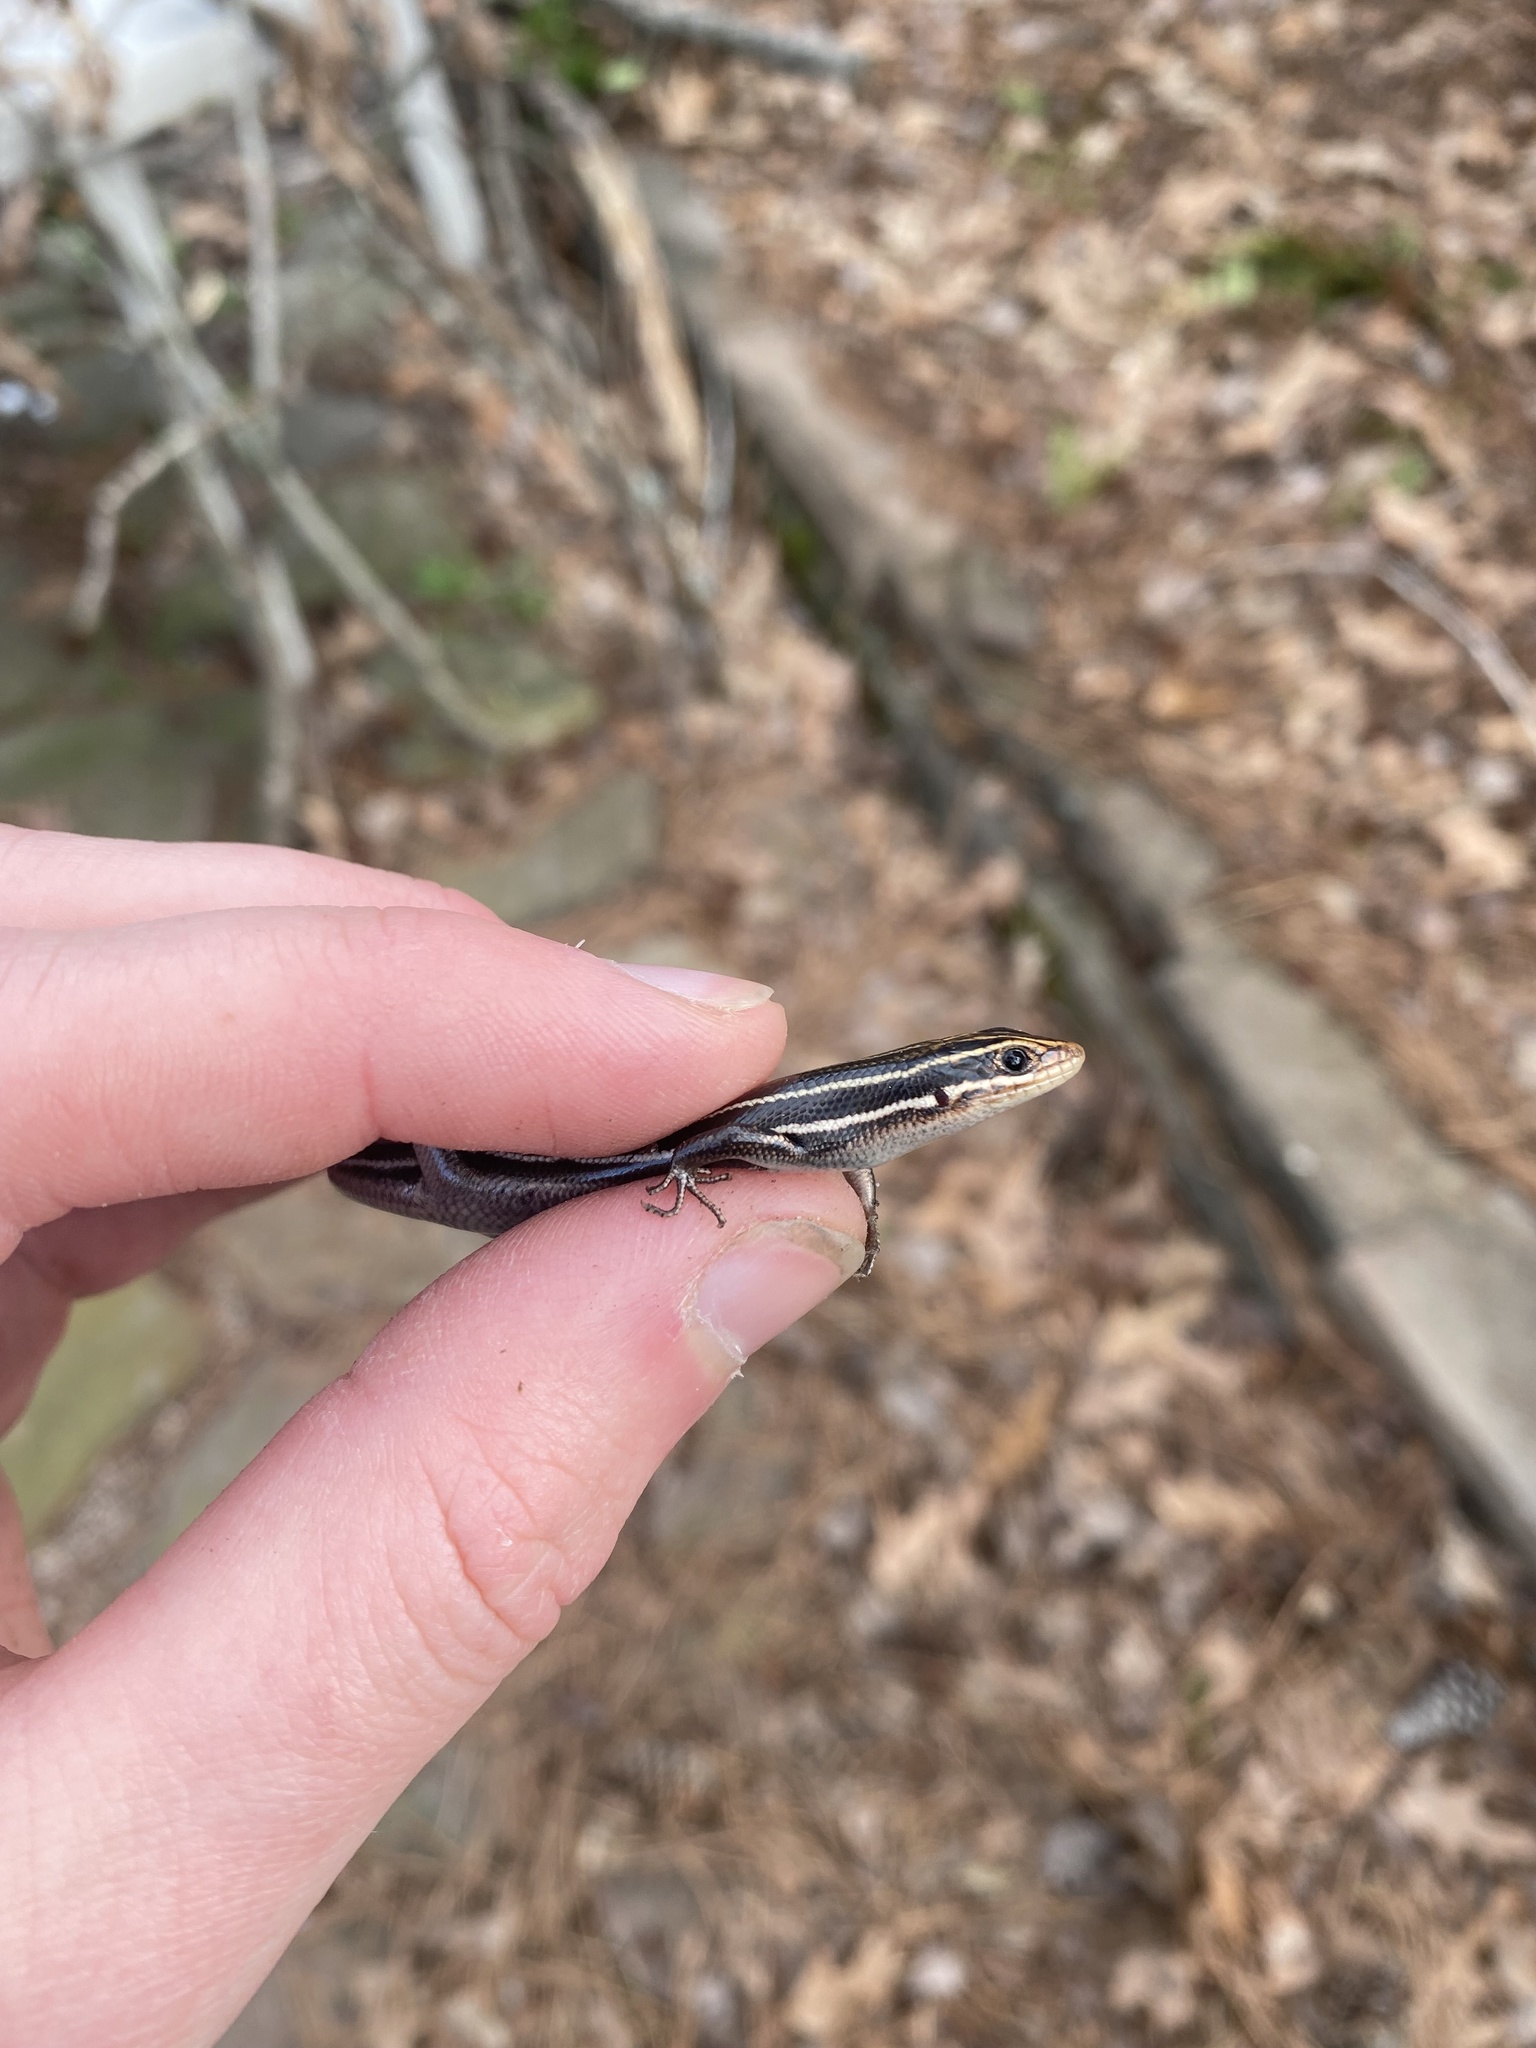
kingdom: Animalia
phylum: Chordata
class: Squamata
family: Scincidae
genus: Plestiodon
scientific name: Plestiodon inexpectatus
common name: Southeastern five-lined skink
